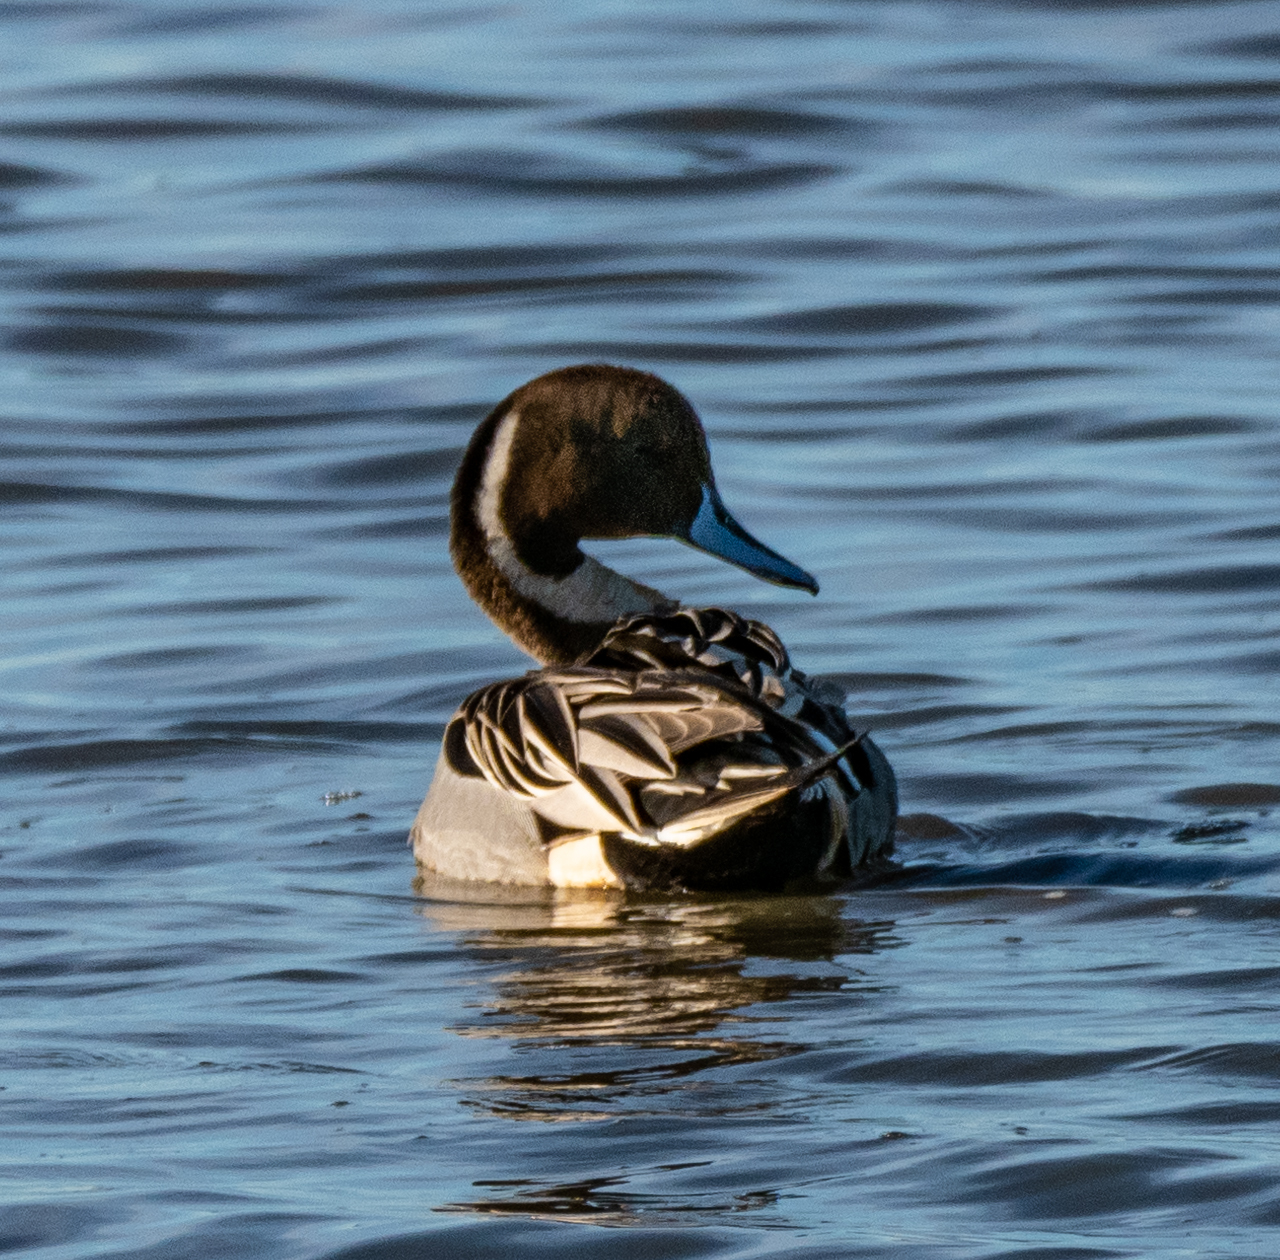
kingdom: Animalia
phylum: Chordata
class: Aves
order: Anseriformes
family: Anatidae
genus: Anas
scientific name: Anas acuta
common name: Northern pintail
